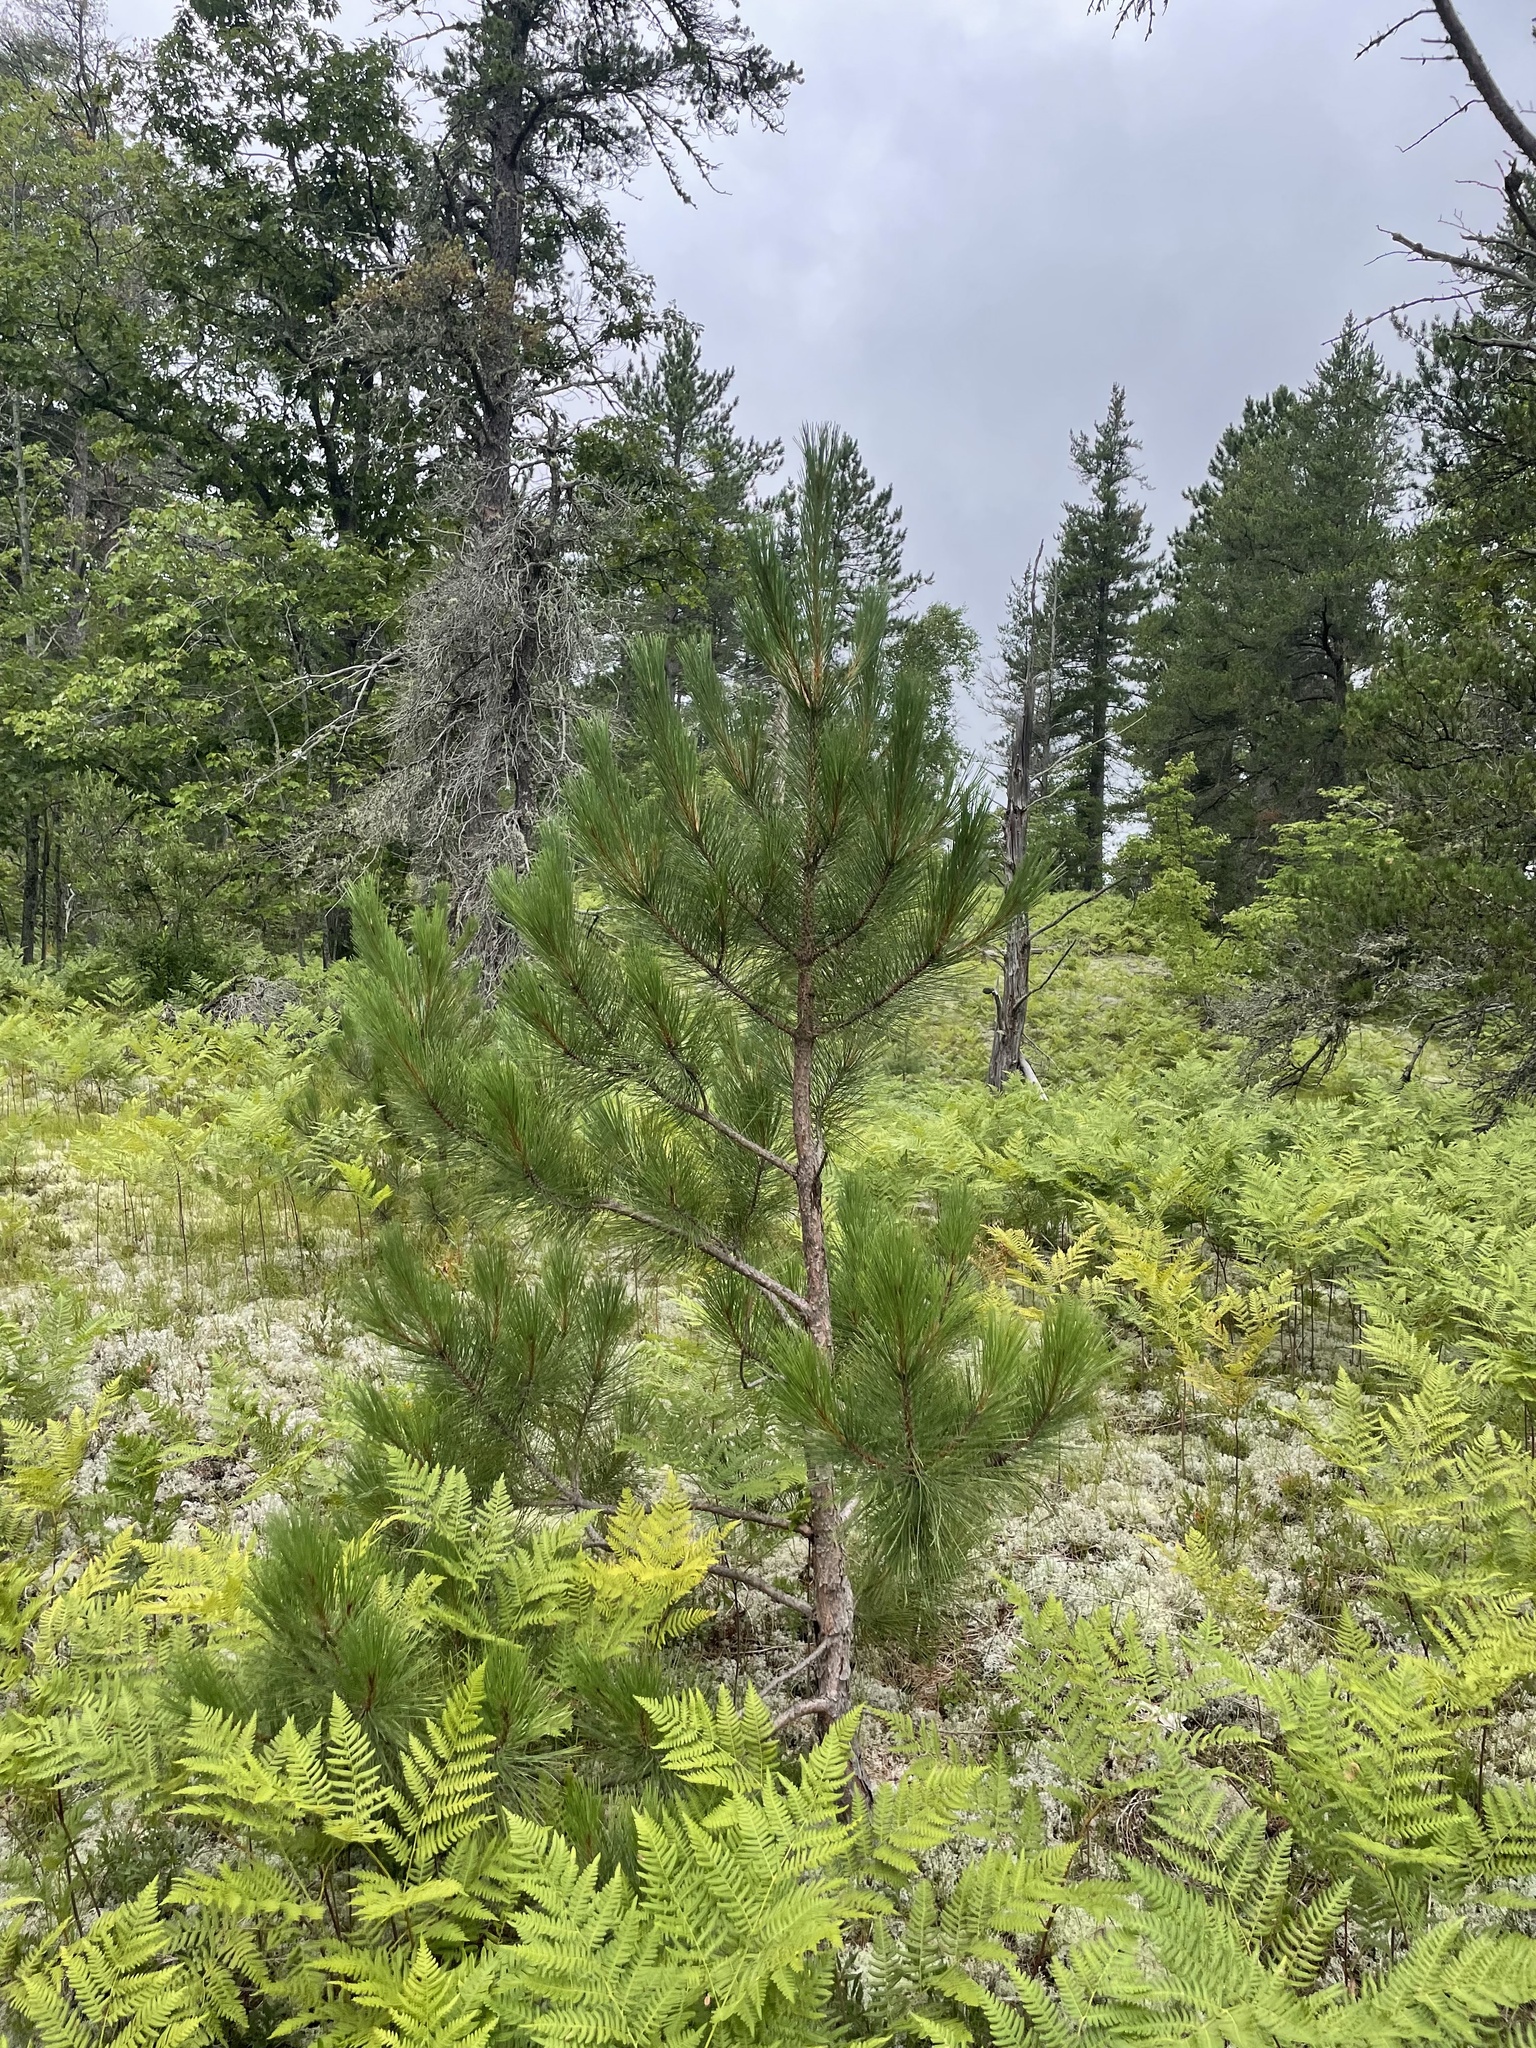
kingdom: Plantae
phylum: Tracheophyta
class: Pinopsida
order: Pinales
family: Pinaceae
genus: Pinus
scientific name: Pinus resinosa
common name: Norway pine
